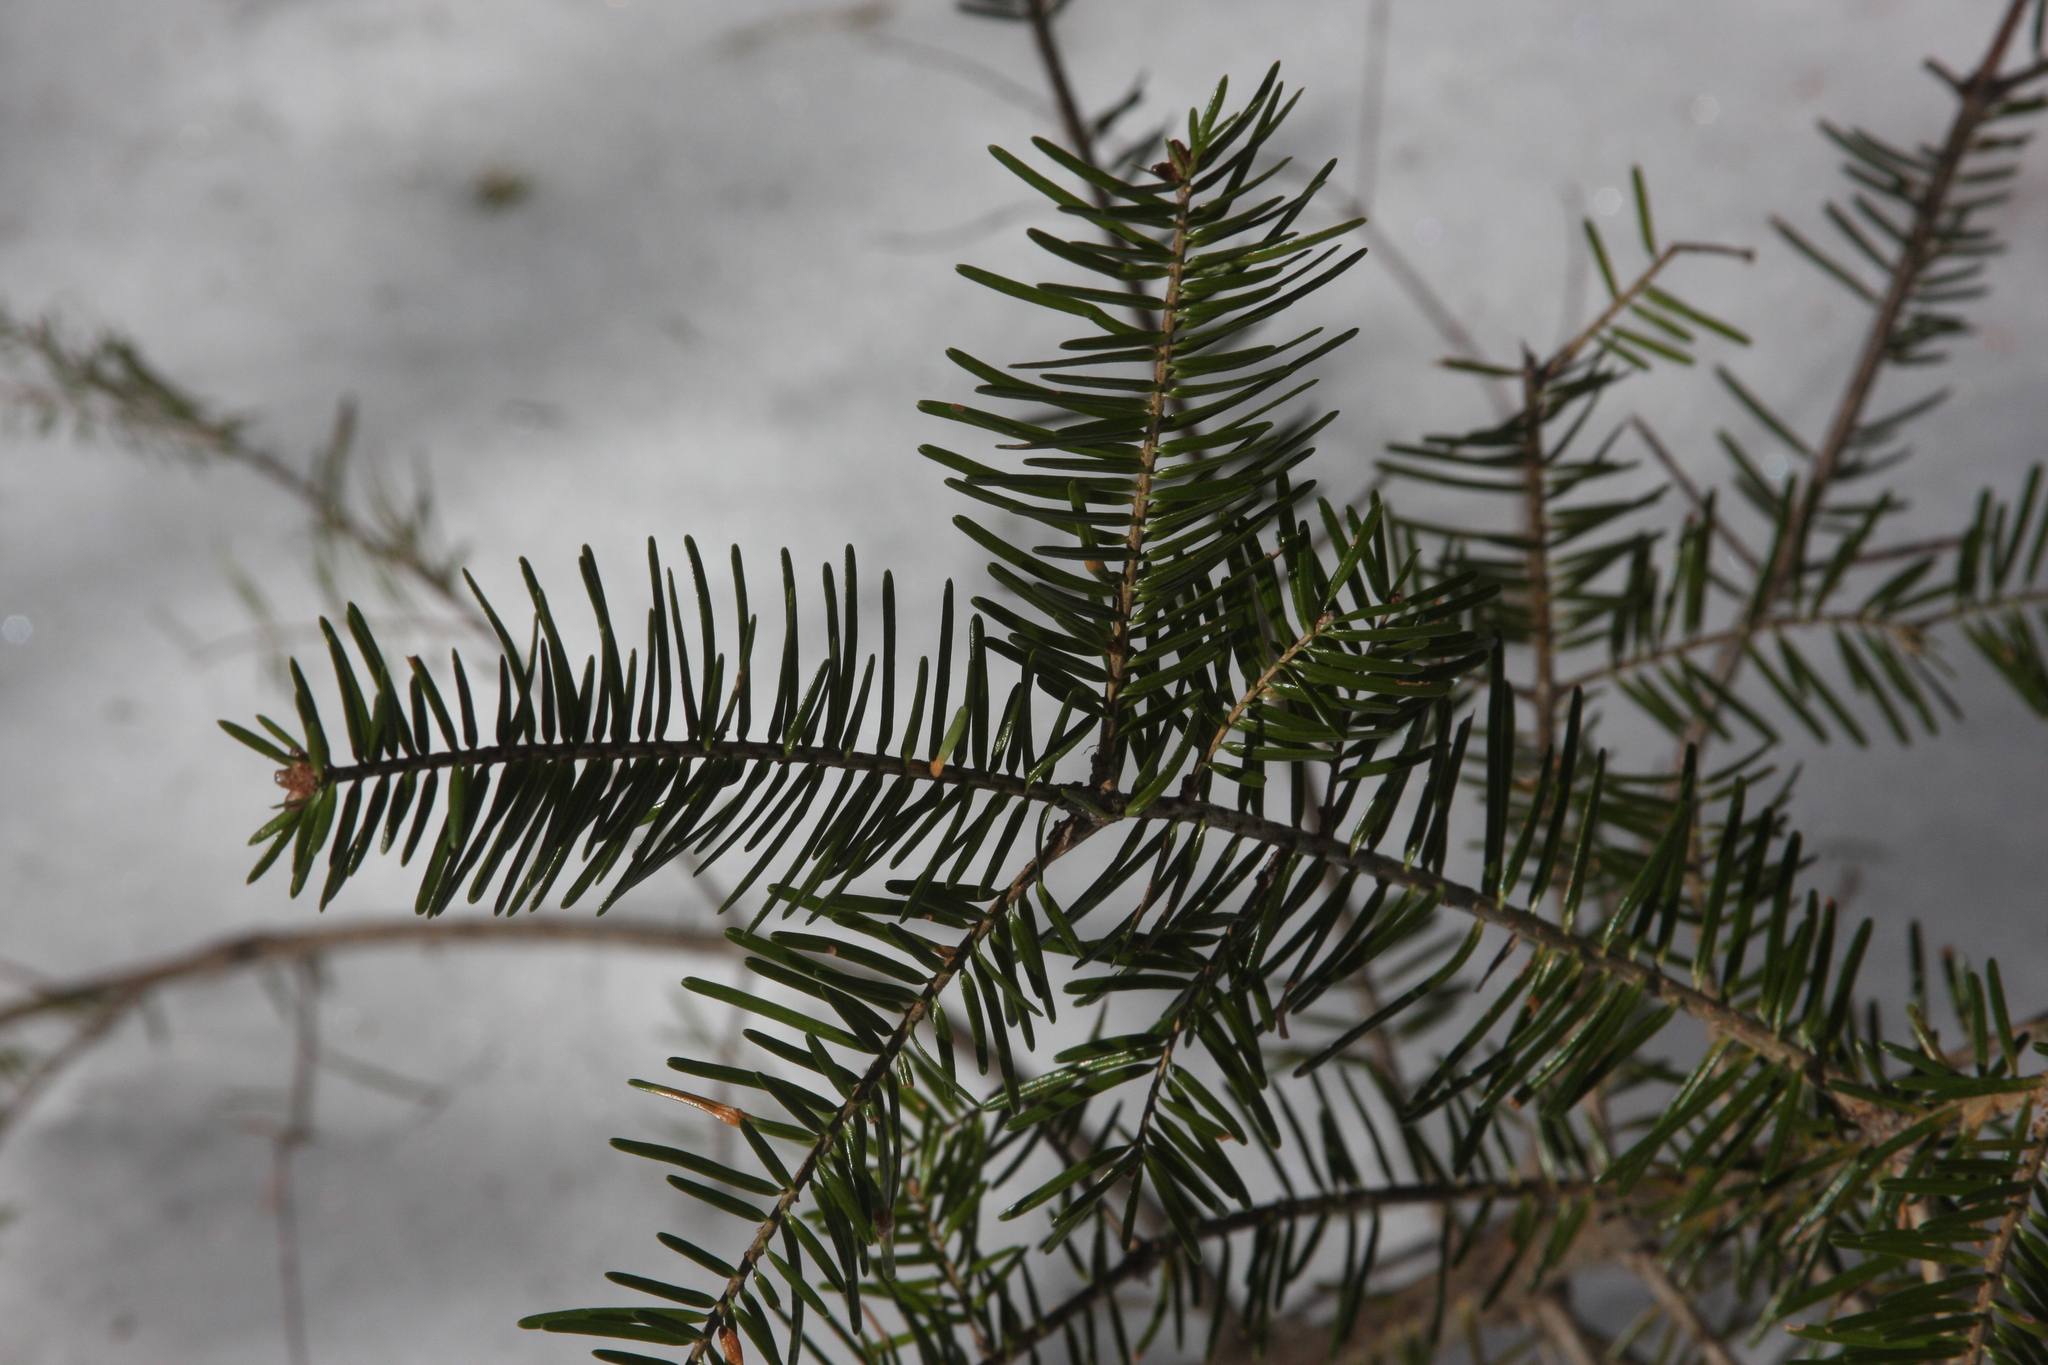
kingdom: Plantae
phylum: Tracheophyta
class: Pinopsida
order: Pinales
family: Pinaceae
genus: Abies
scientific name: Abies balsamea
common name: Balsam fir
